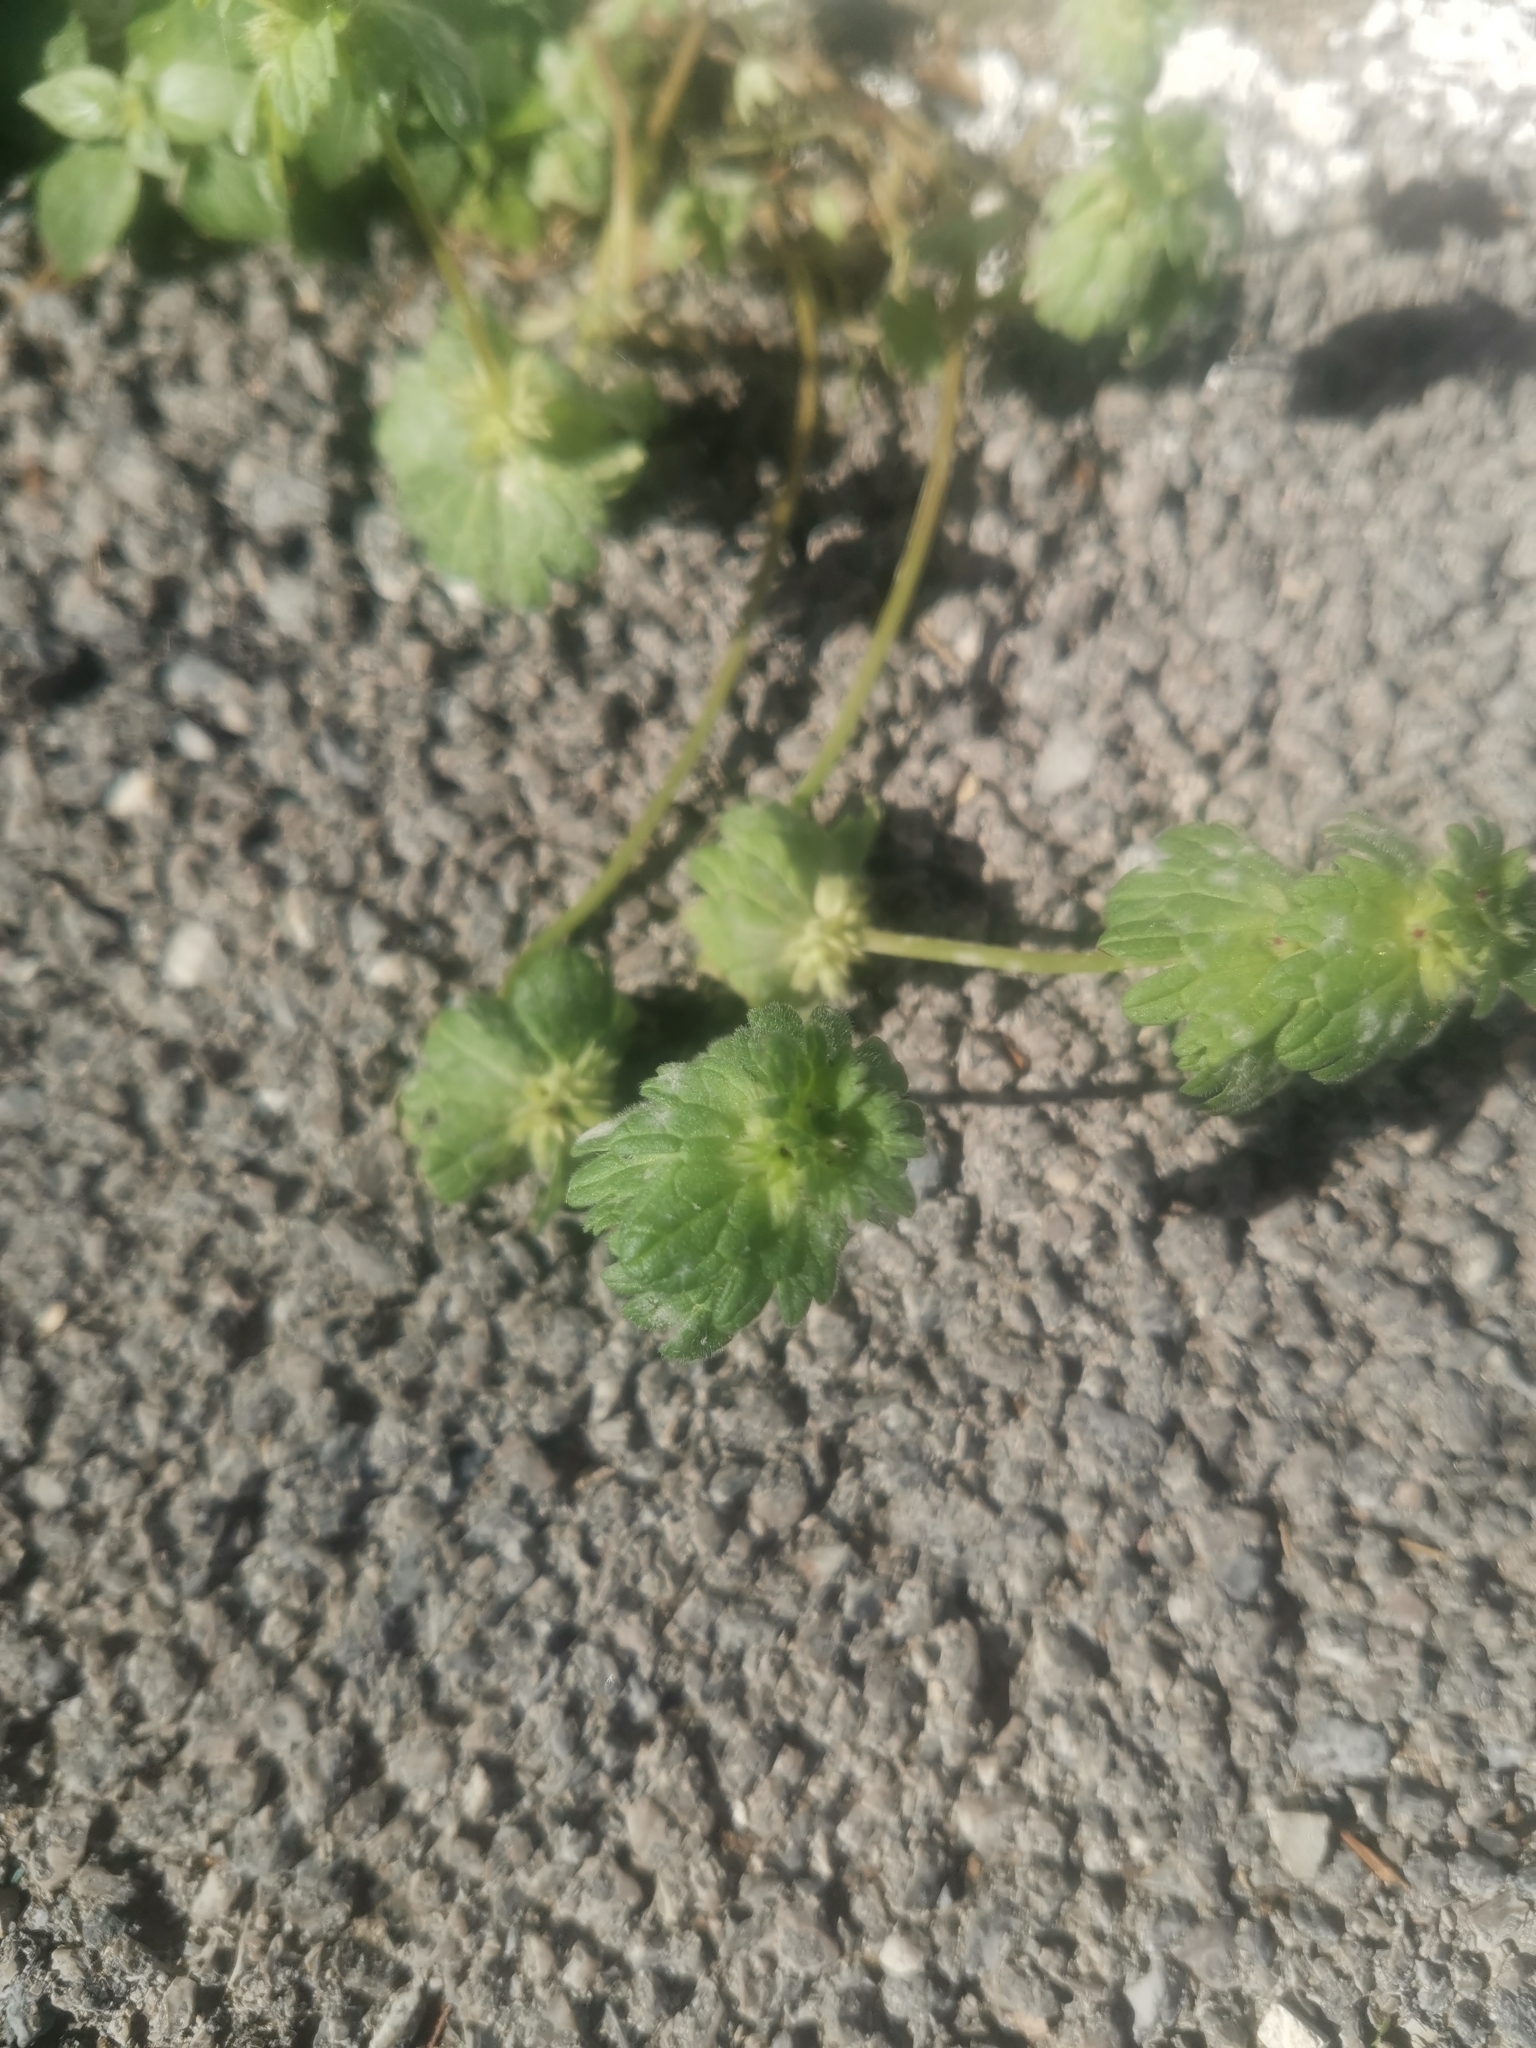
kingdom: Plantae
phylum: Tracheophyta
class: Magnoliopsida
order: Lamiales
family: Lamiaceae
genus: Lamium
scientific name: Lamium amplexicaule
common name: Henbit dead-nettle
